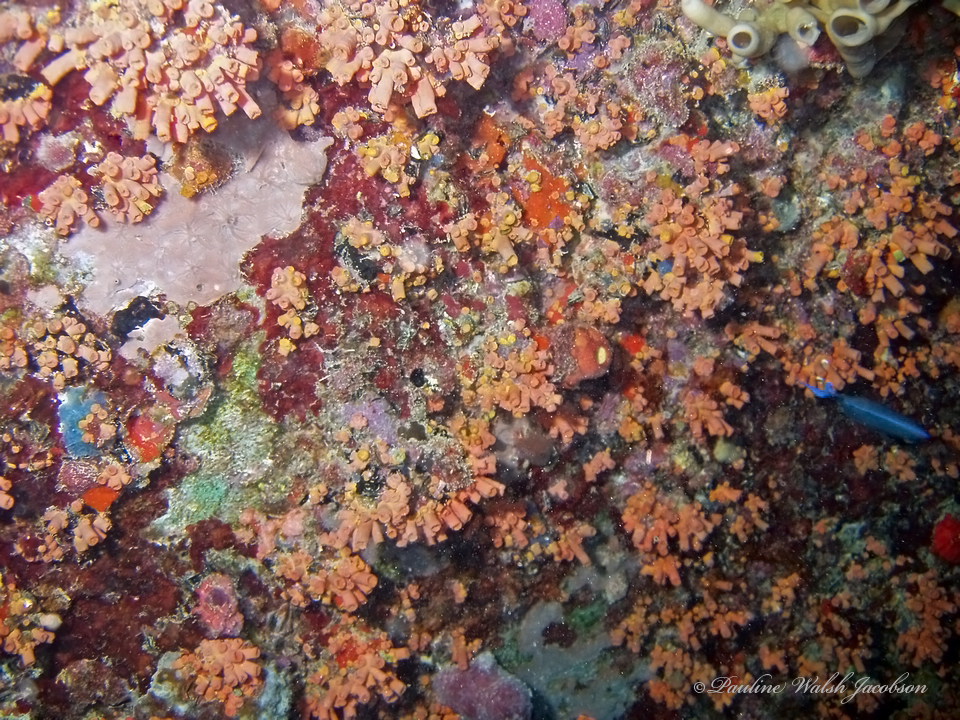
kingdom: Animalia
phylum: Cnidaria
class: Anthozoa
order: Scleractinia
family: Dendrophylliidae
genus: Tubastraea
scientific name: Tubastraea tagusensis
